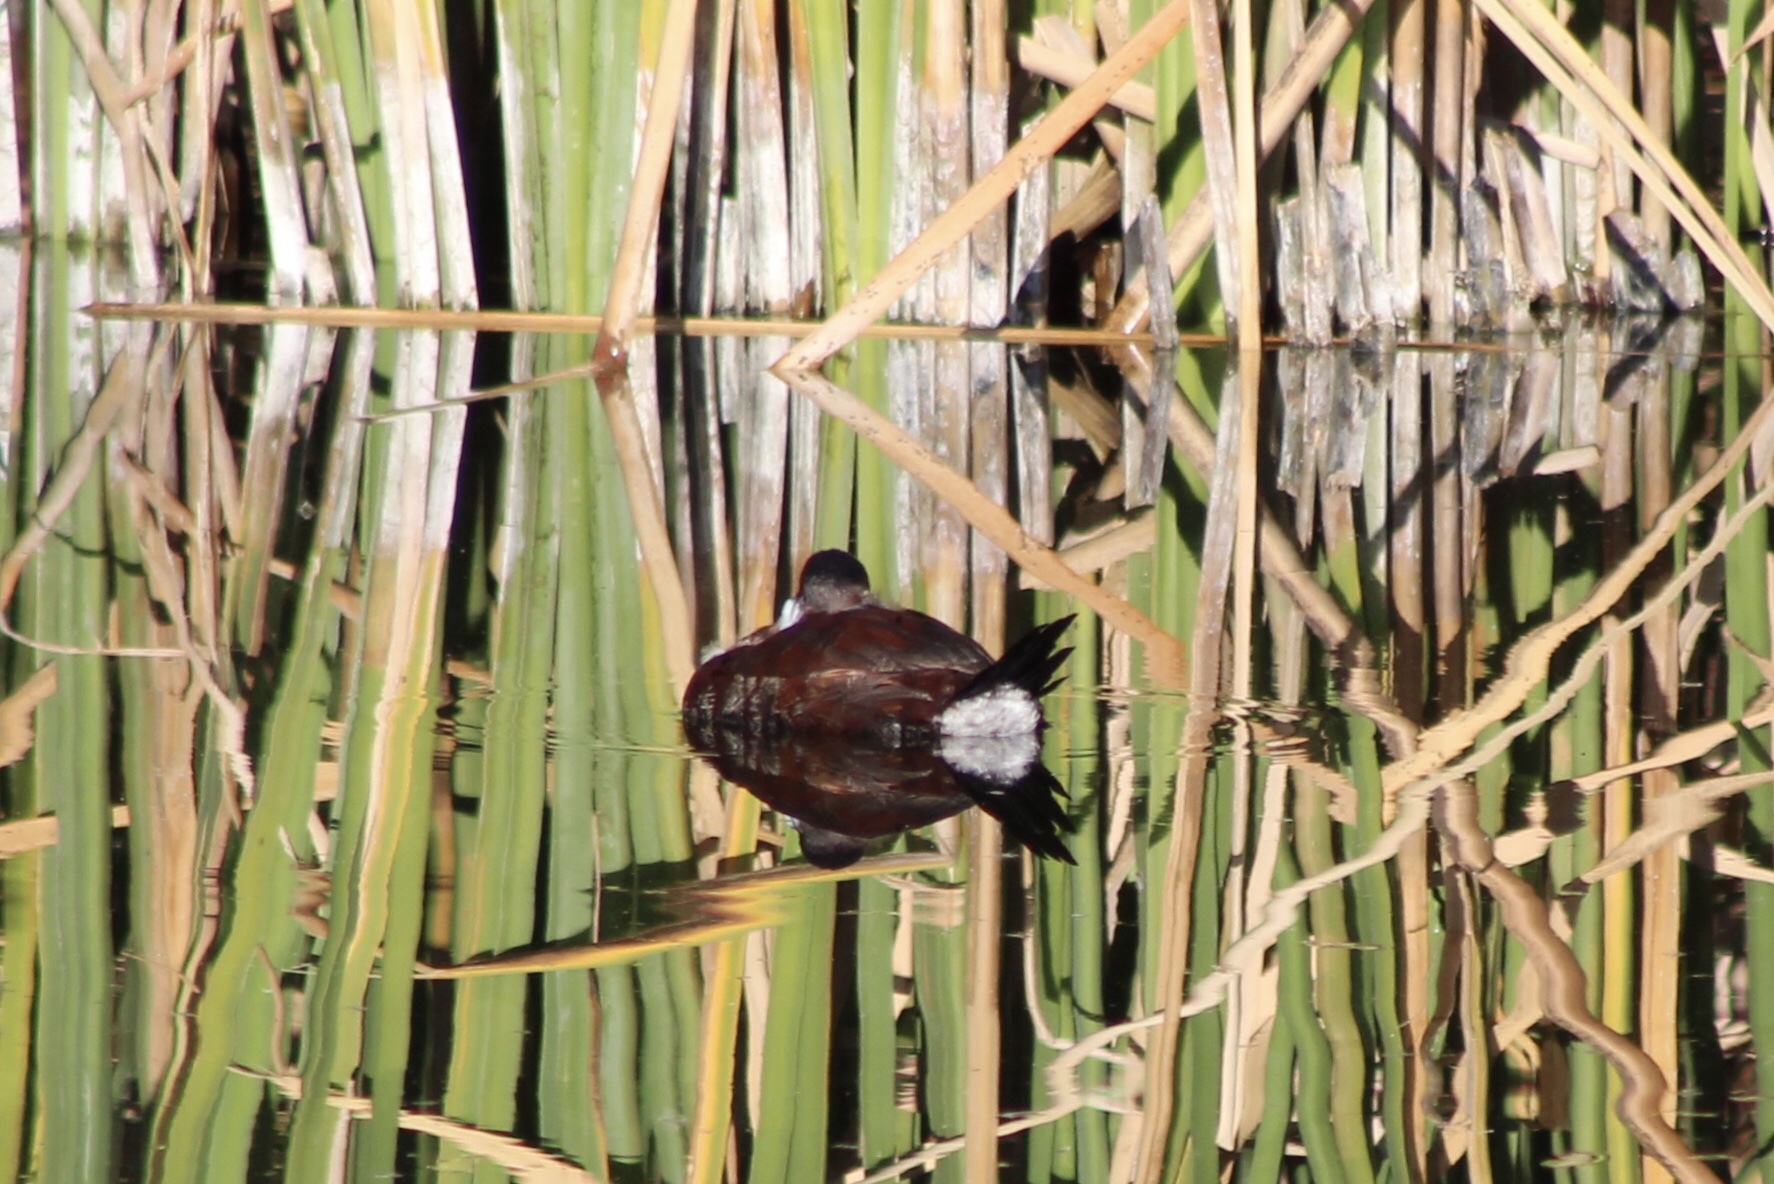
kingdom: Animalia
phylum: Chordata
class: Aves
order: Anseriformes
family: Anatidae
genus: Oxyura
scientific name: Oxyura jamaicensis
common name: Ruddy duck
